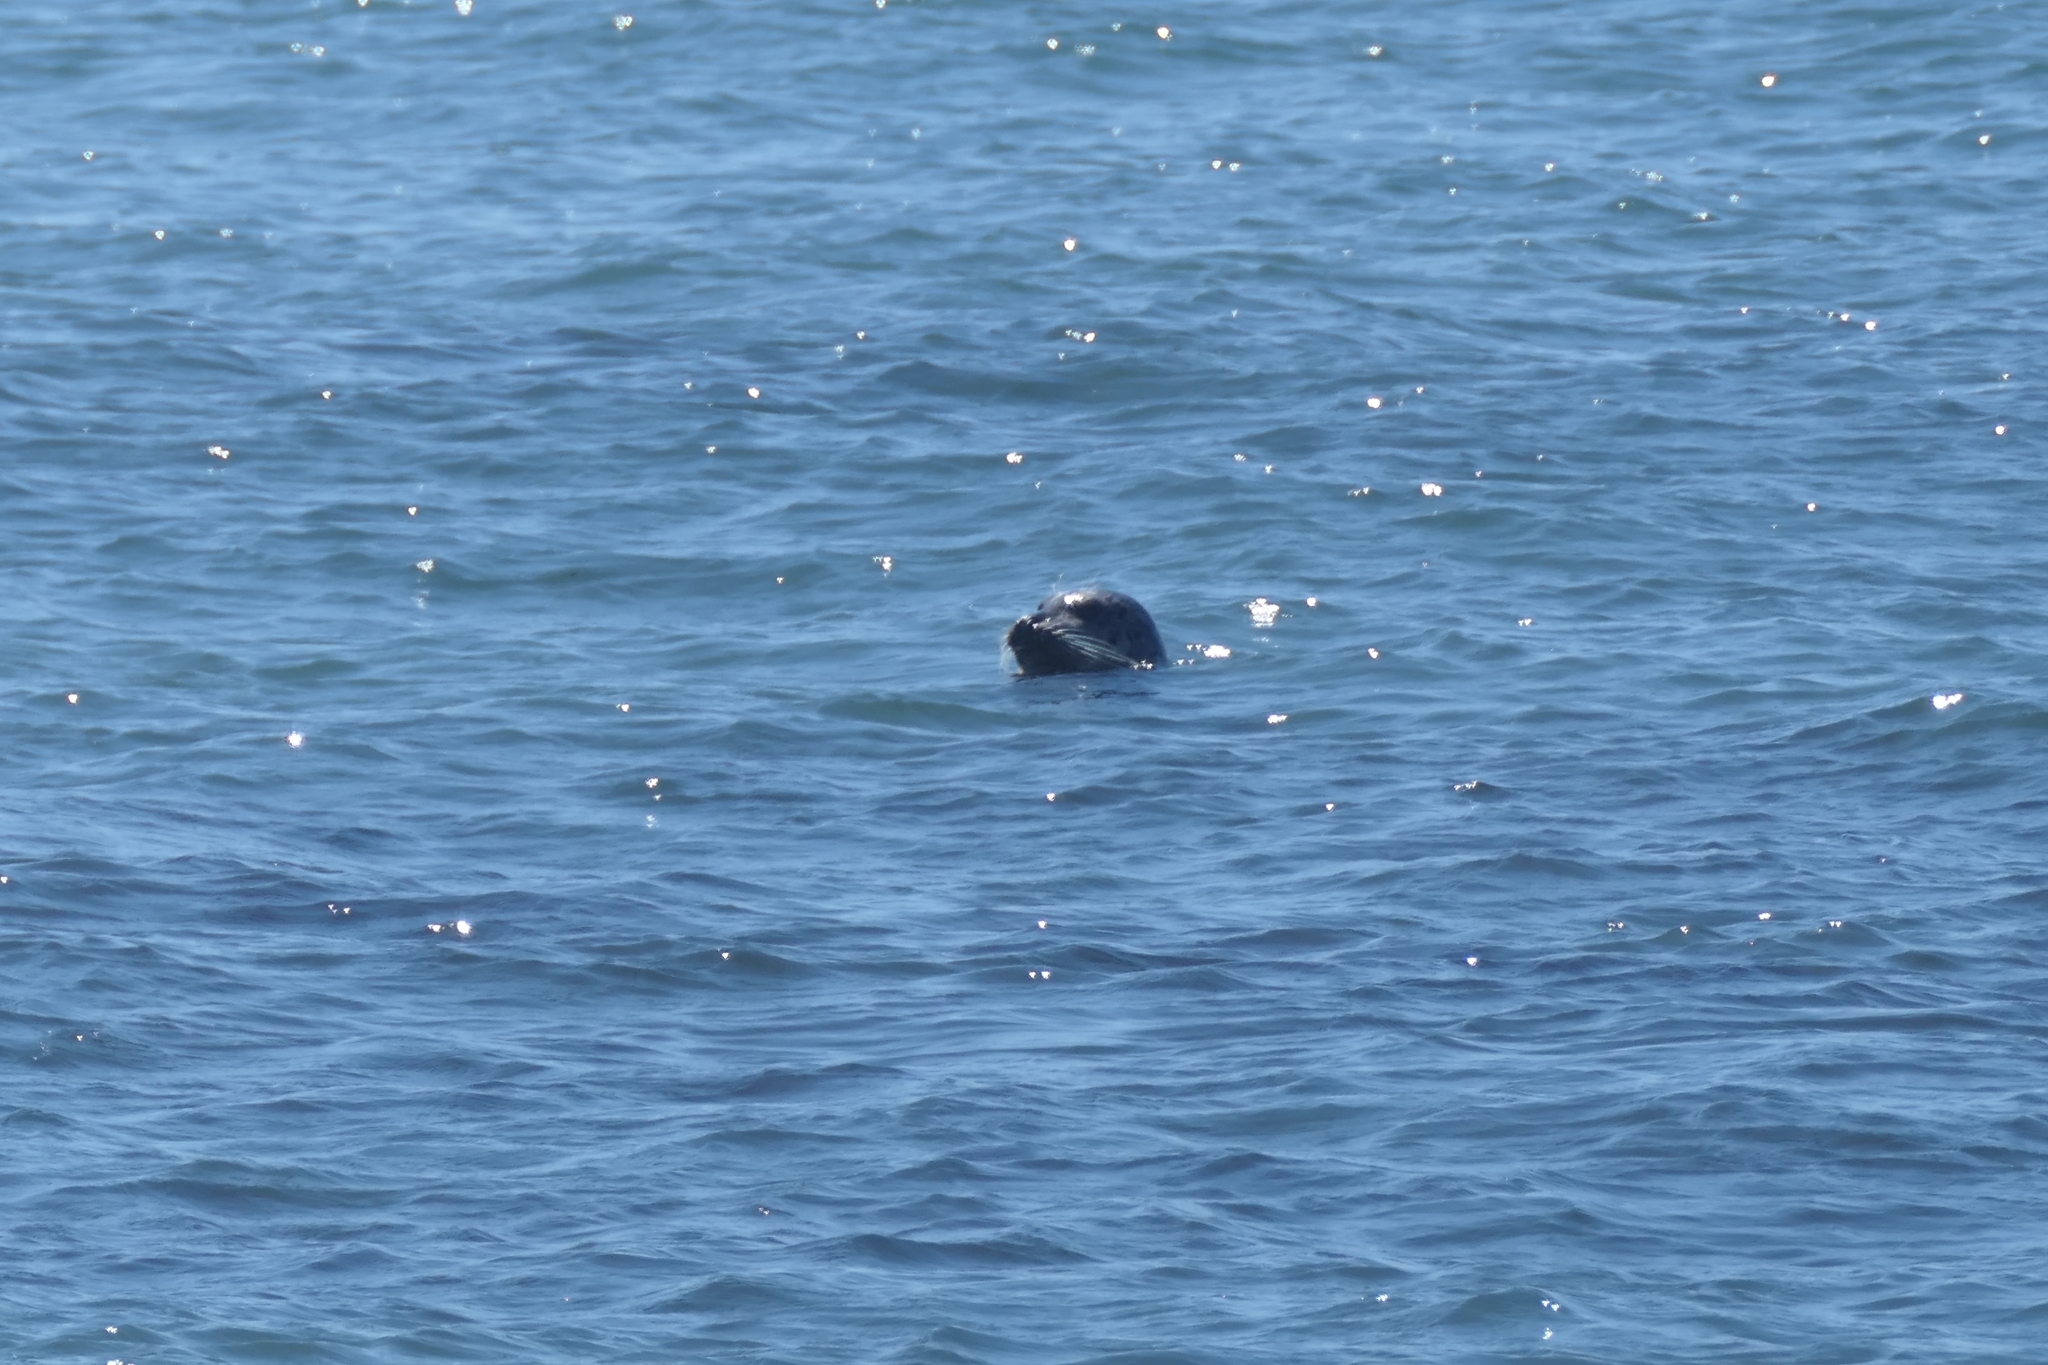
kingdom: Animalia
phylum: Chordata
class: Mammalia
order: Carnivora
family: Phocidae
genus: Phoca
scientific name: Phoca vitulina
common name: Harbor seal
